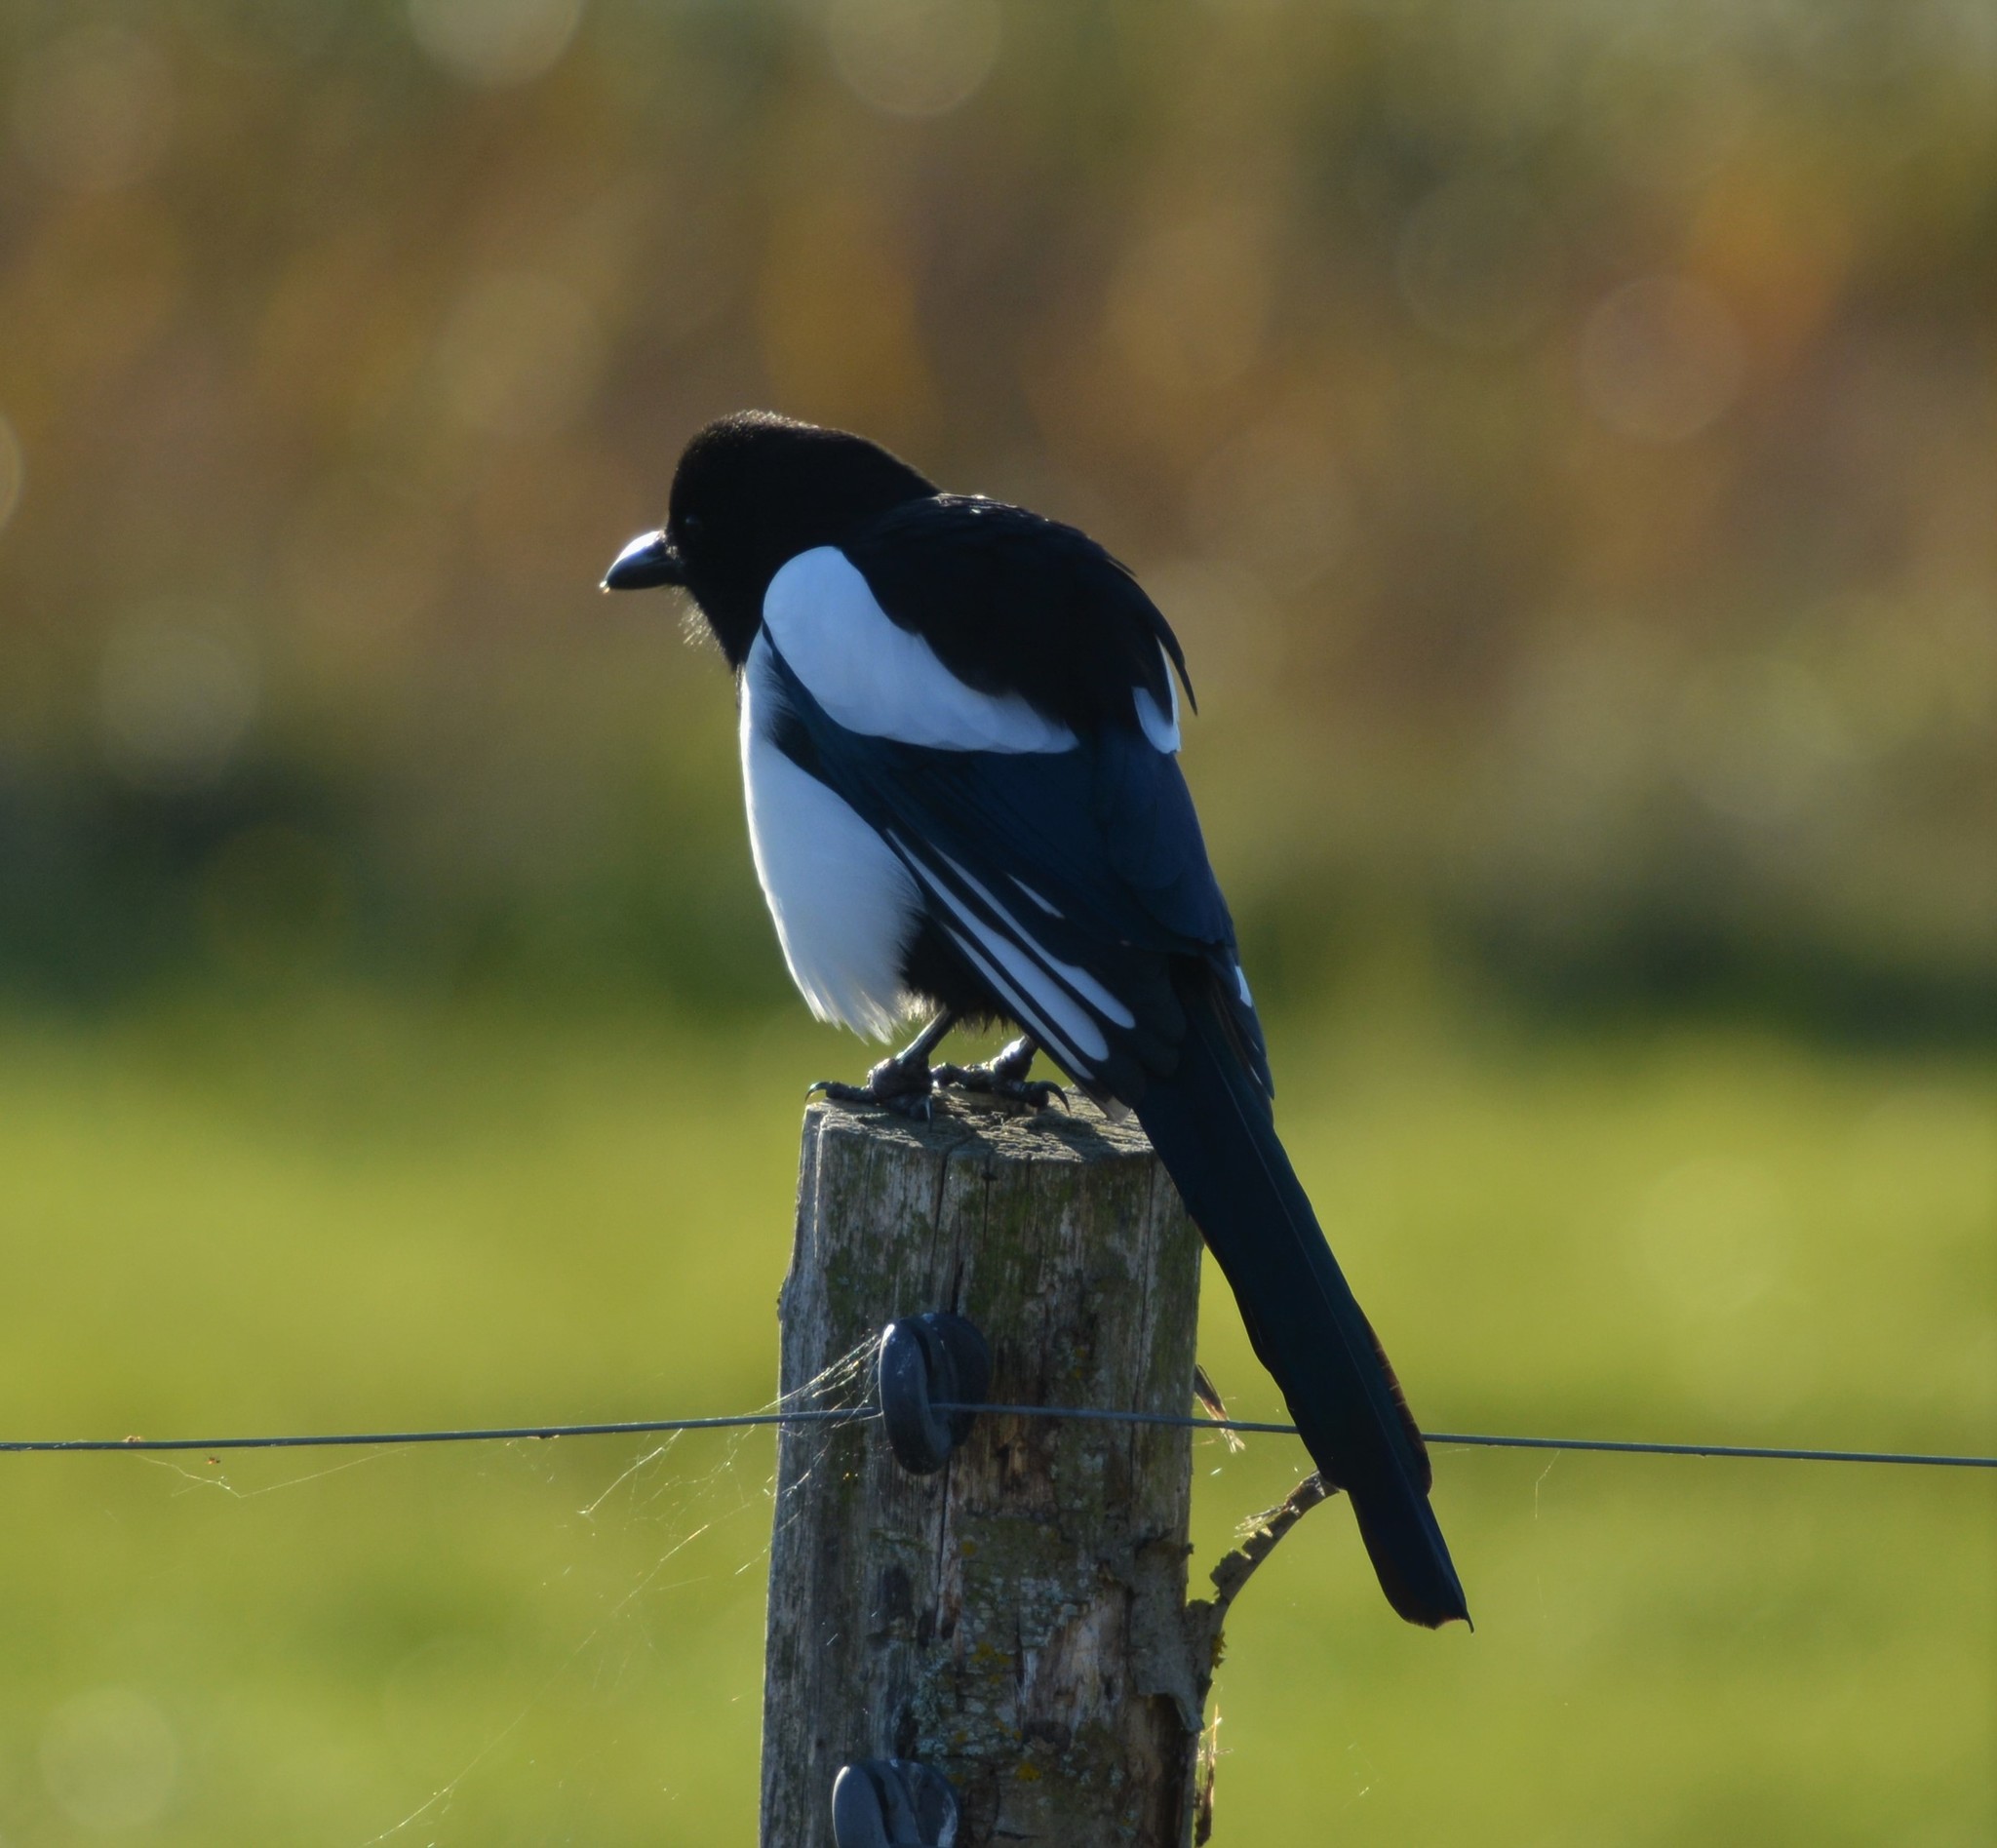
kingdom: Animalia
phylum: Chordata
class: Aves
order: Passeriformes
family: Corvidae
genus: Pica
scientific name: Pica pica
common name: Eurasian magpie
